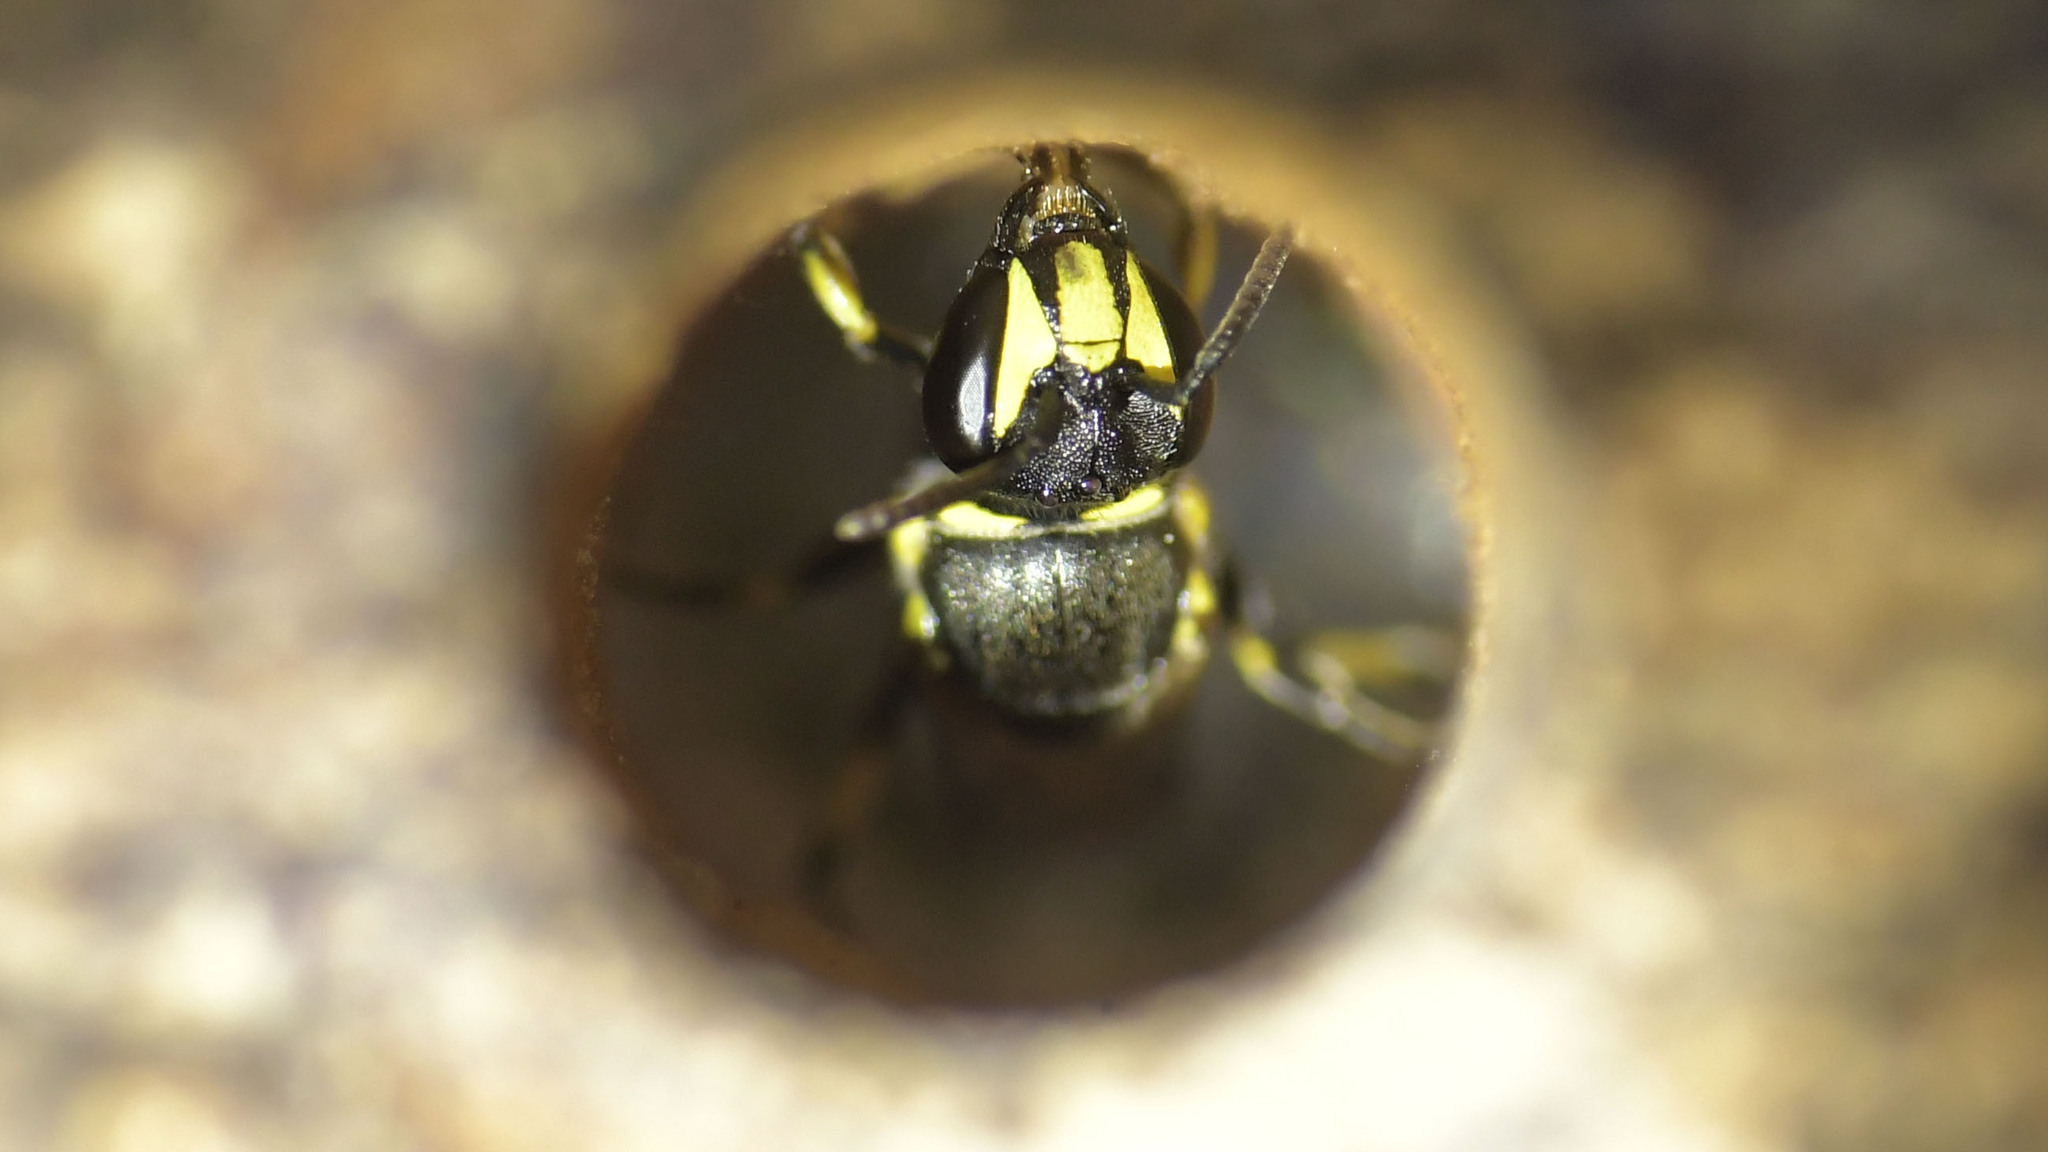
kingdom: Animalia
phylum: Arthropoda
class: Insecta
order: Hymenoptera
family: Colletidae
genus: Hylaeus
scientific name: Hylaeus mediolucens
